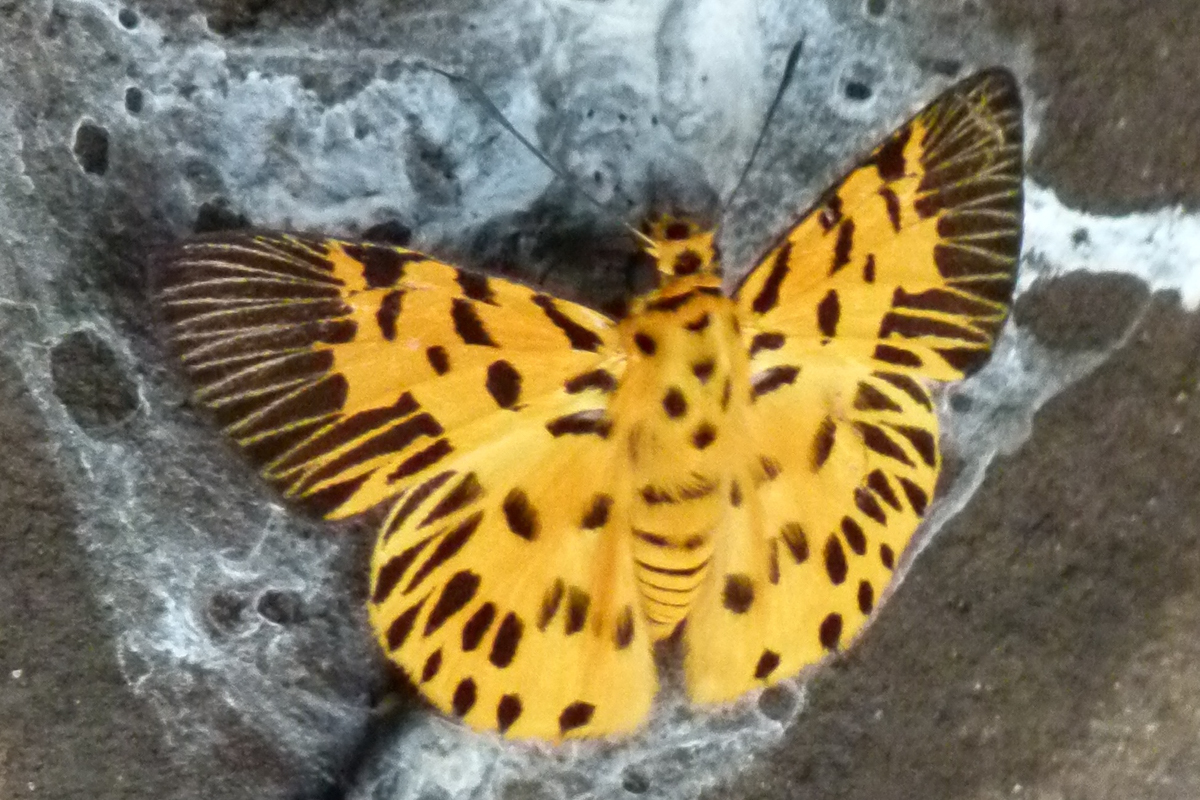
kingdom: Animalia
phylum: Arthropoda
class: Insecta
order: Lepidoptera
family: Hesperiidae
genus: Odina
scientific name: Odina decoratus
